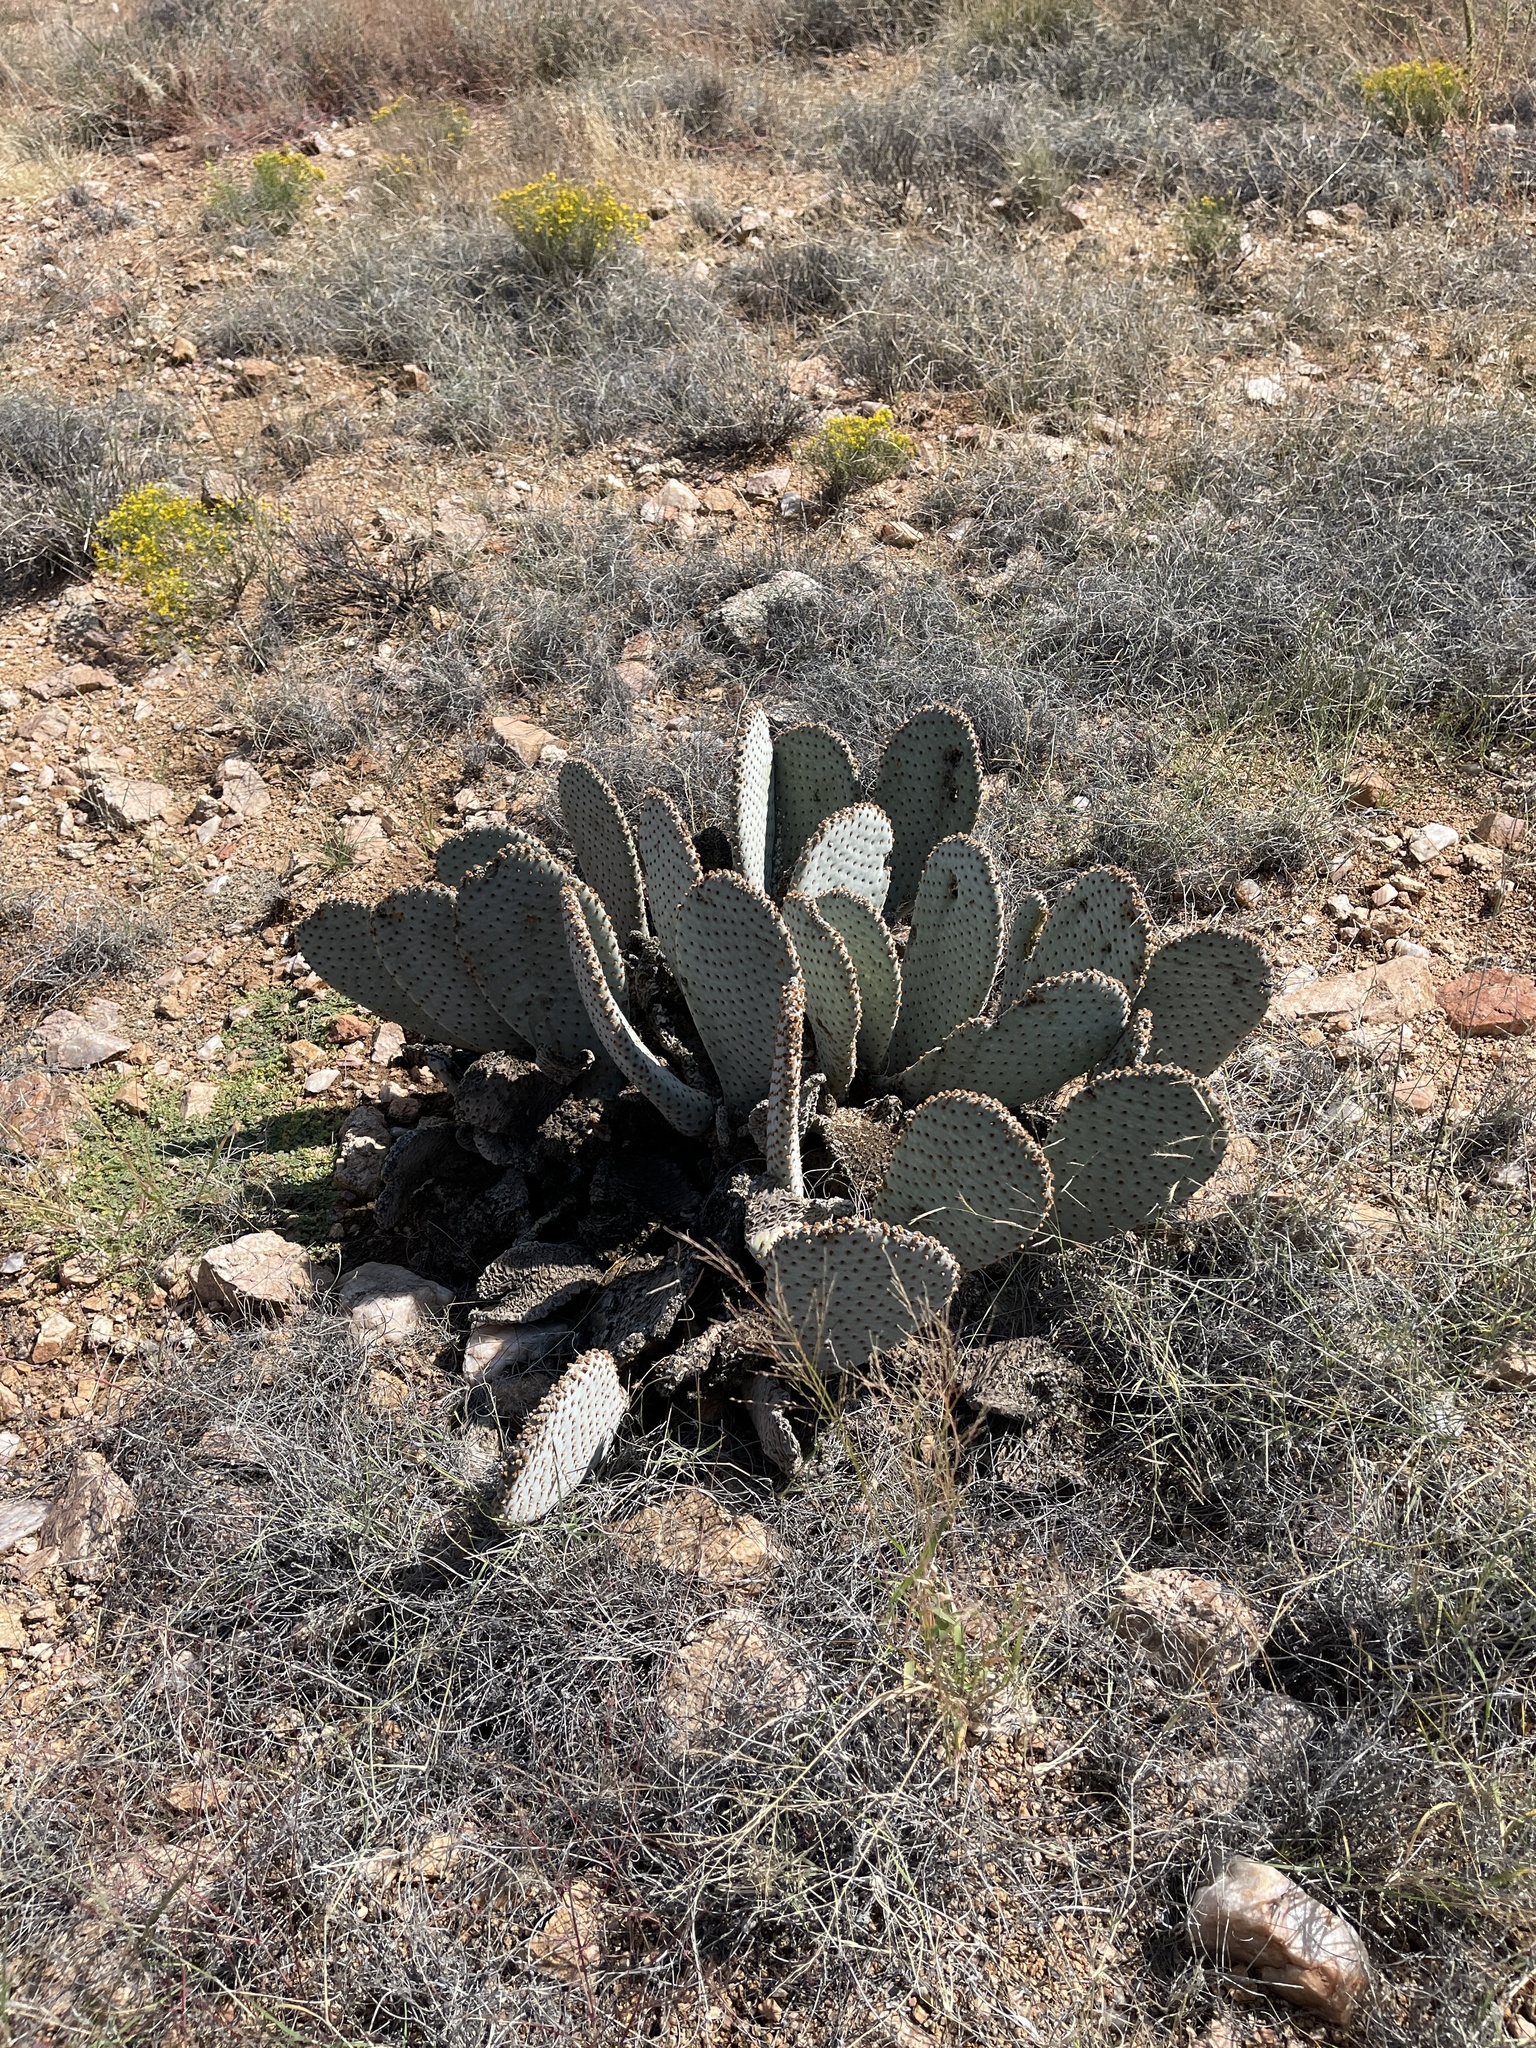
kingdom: Plantae
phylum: Tracheophyta
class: Magnoliopsida
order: Caryophyllales
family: Cactaceae
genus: Opuntia
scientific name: Opuntia basilaris
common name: Beavertail prickly-pear
